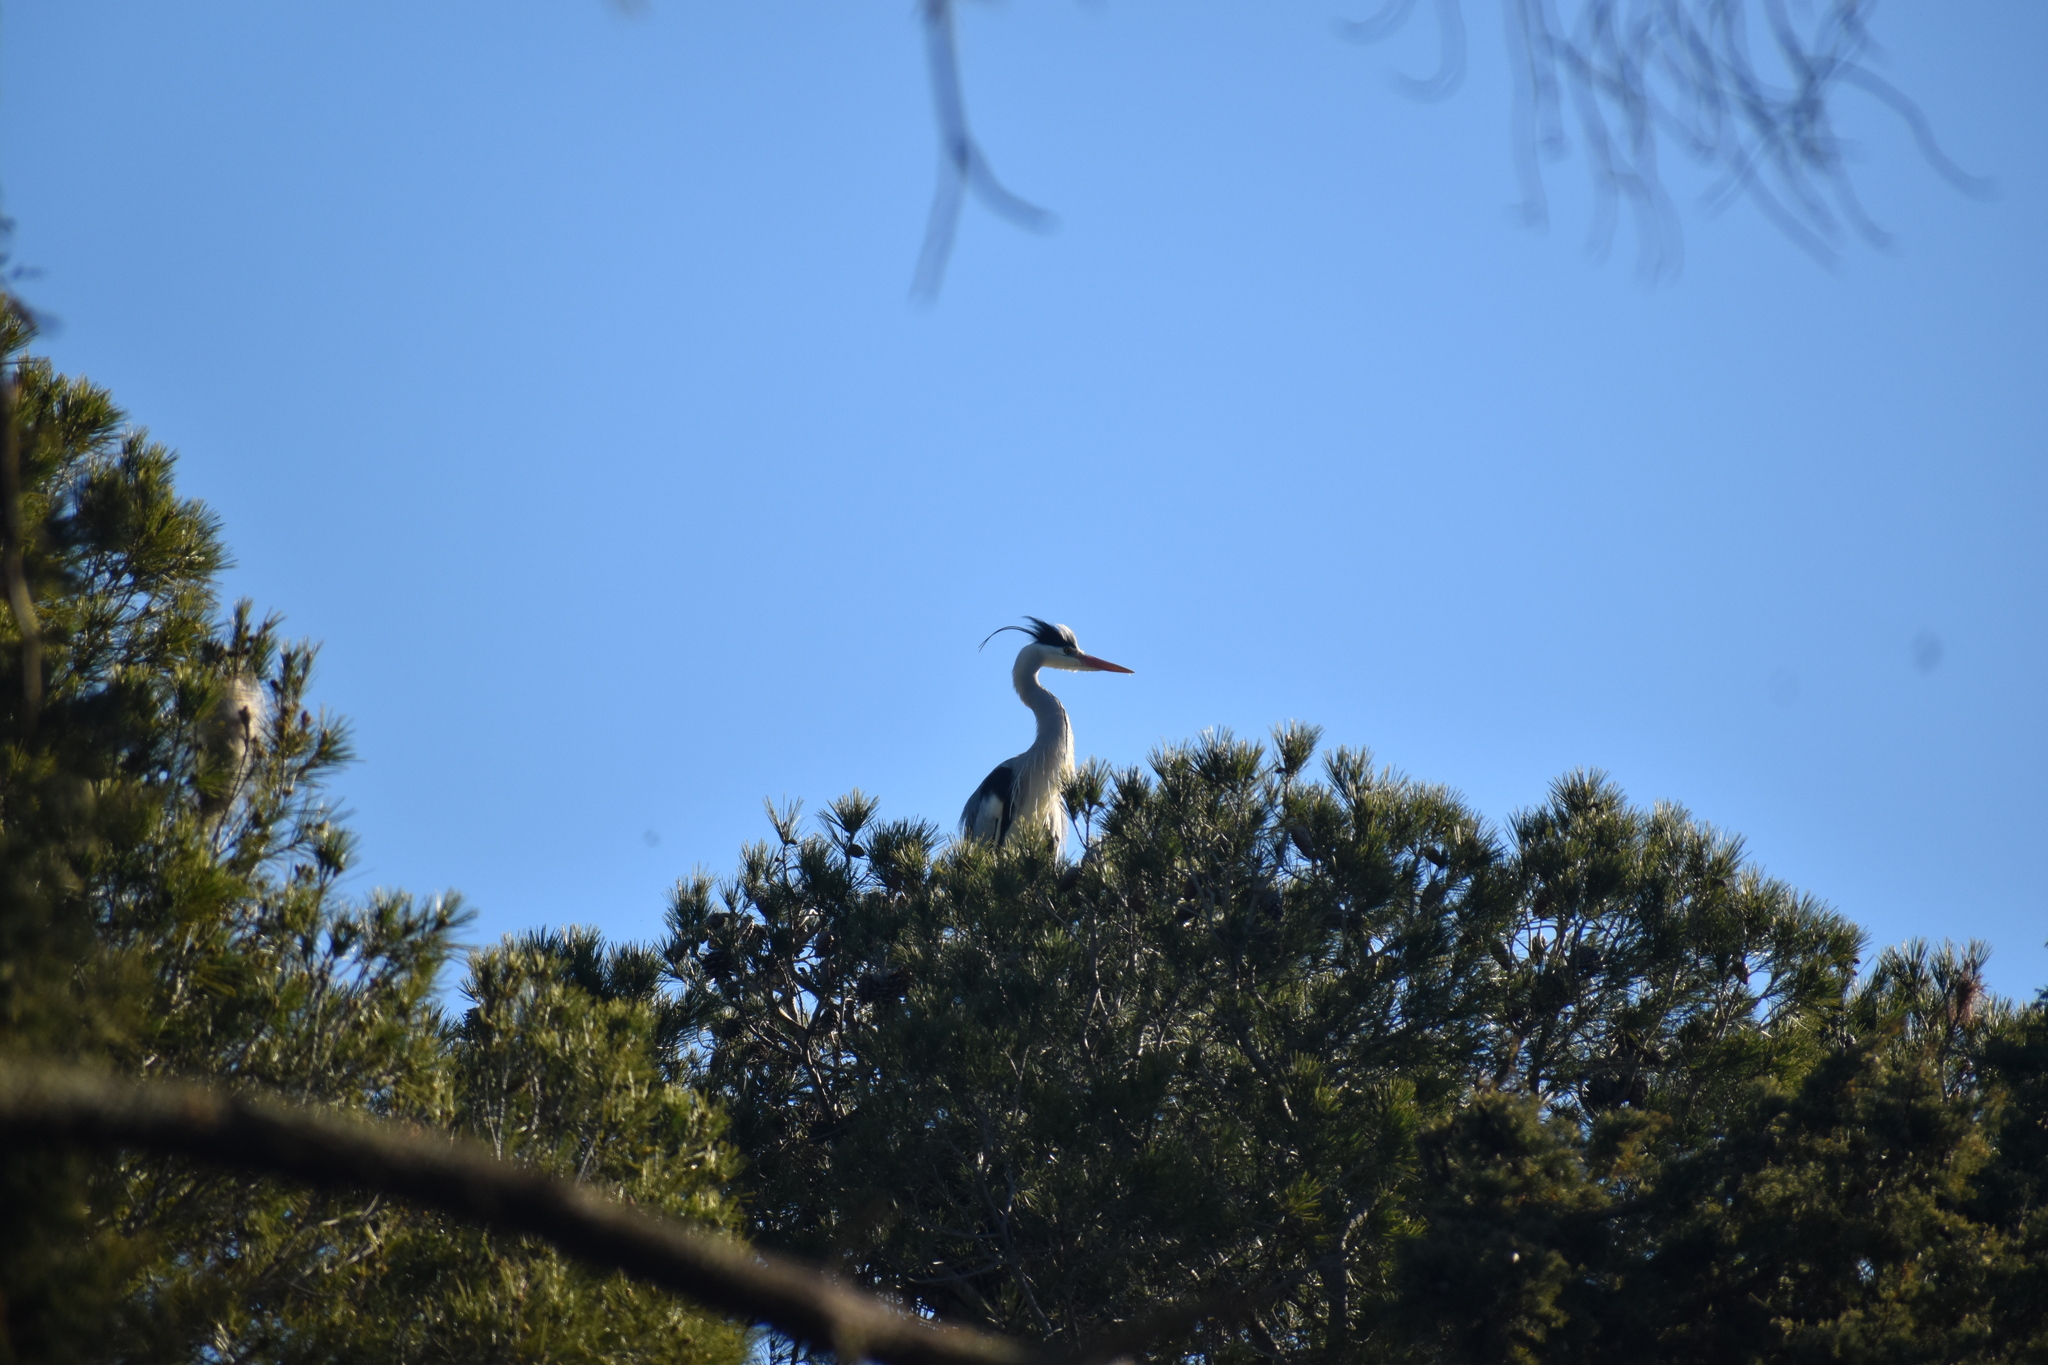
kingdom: Animalia
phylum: Chordata
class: Aves
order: Pelecaniformes
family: Ardeidae
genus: Ardea
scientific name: Ardea cinerea
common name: Grey heron
